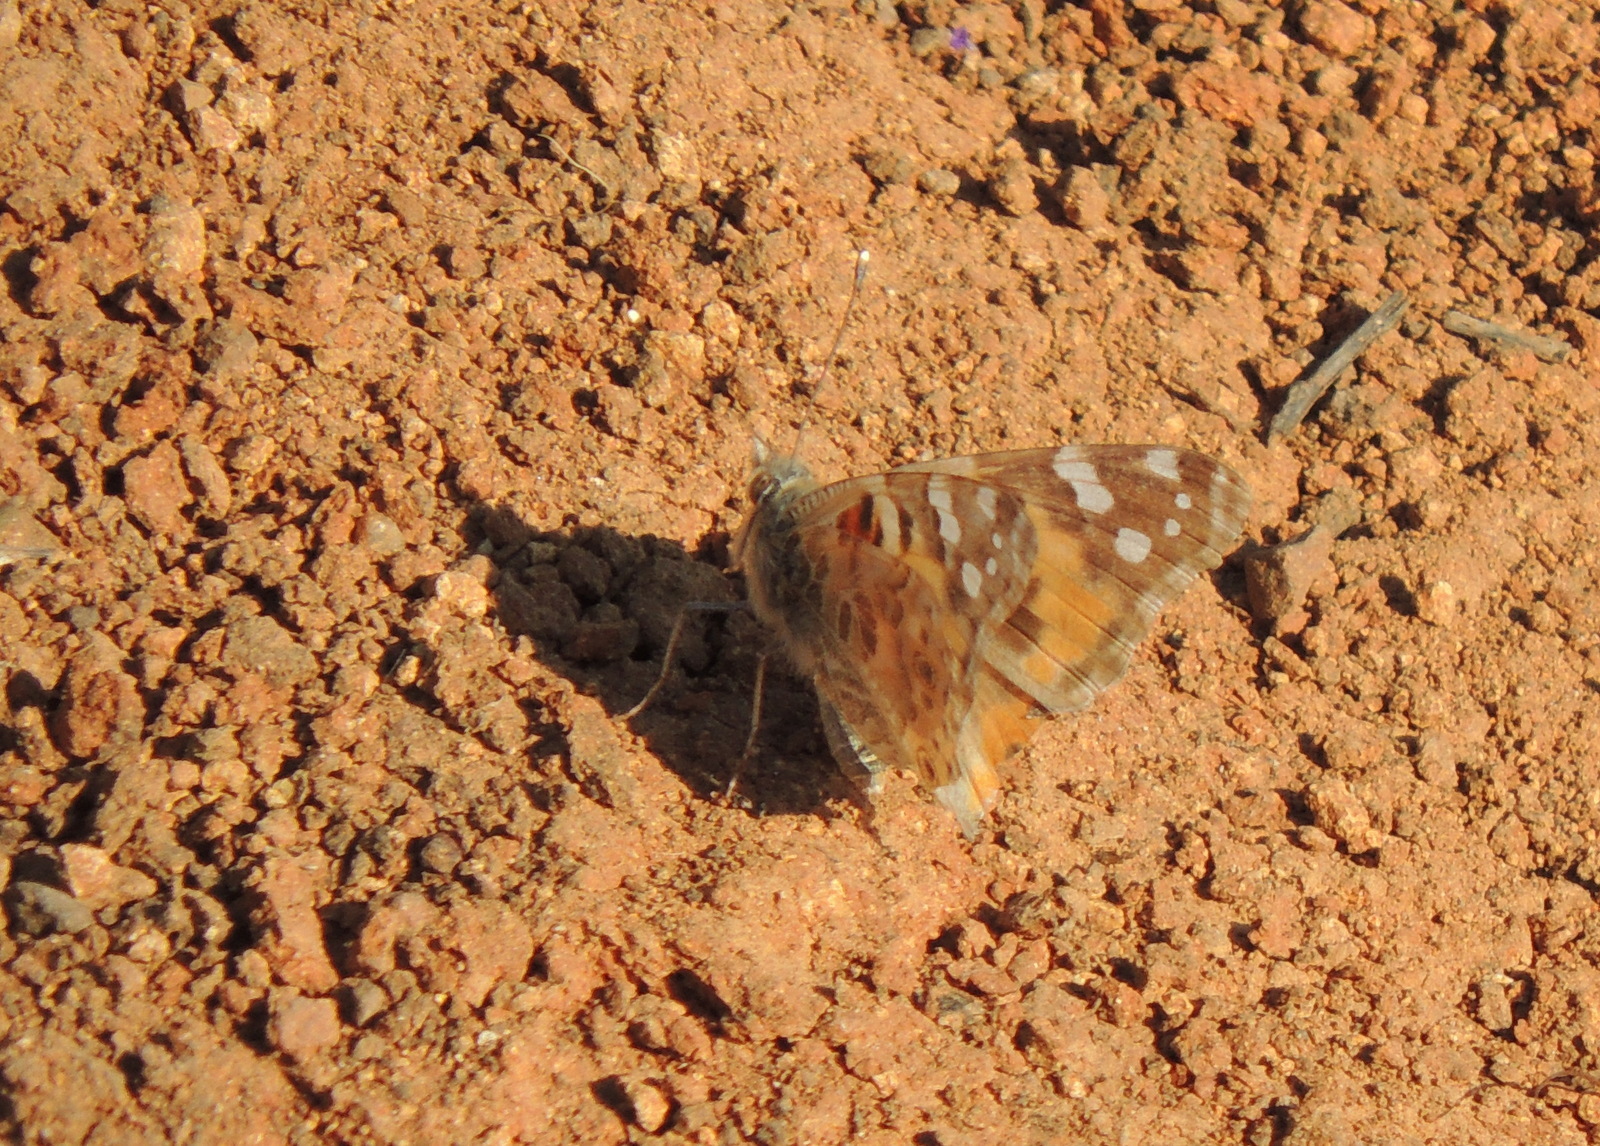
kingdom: Animalia
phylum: Arthropoda
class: Insecta
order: Lepidoptera
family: Nymphalidae
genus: Vanessa
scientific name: Vanessa cardui
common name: Painted lady
